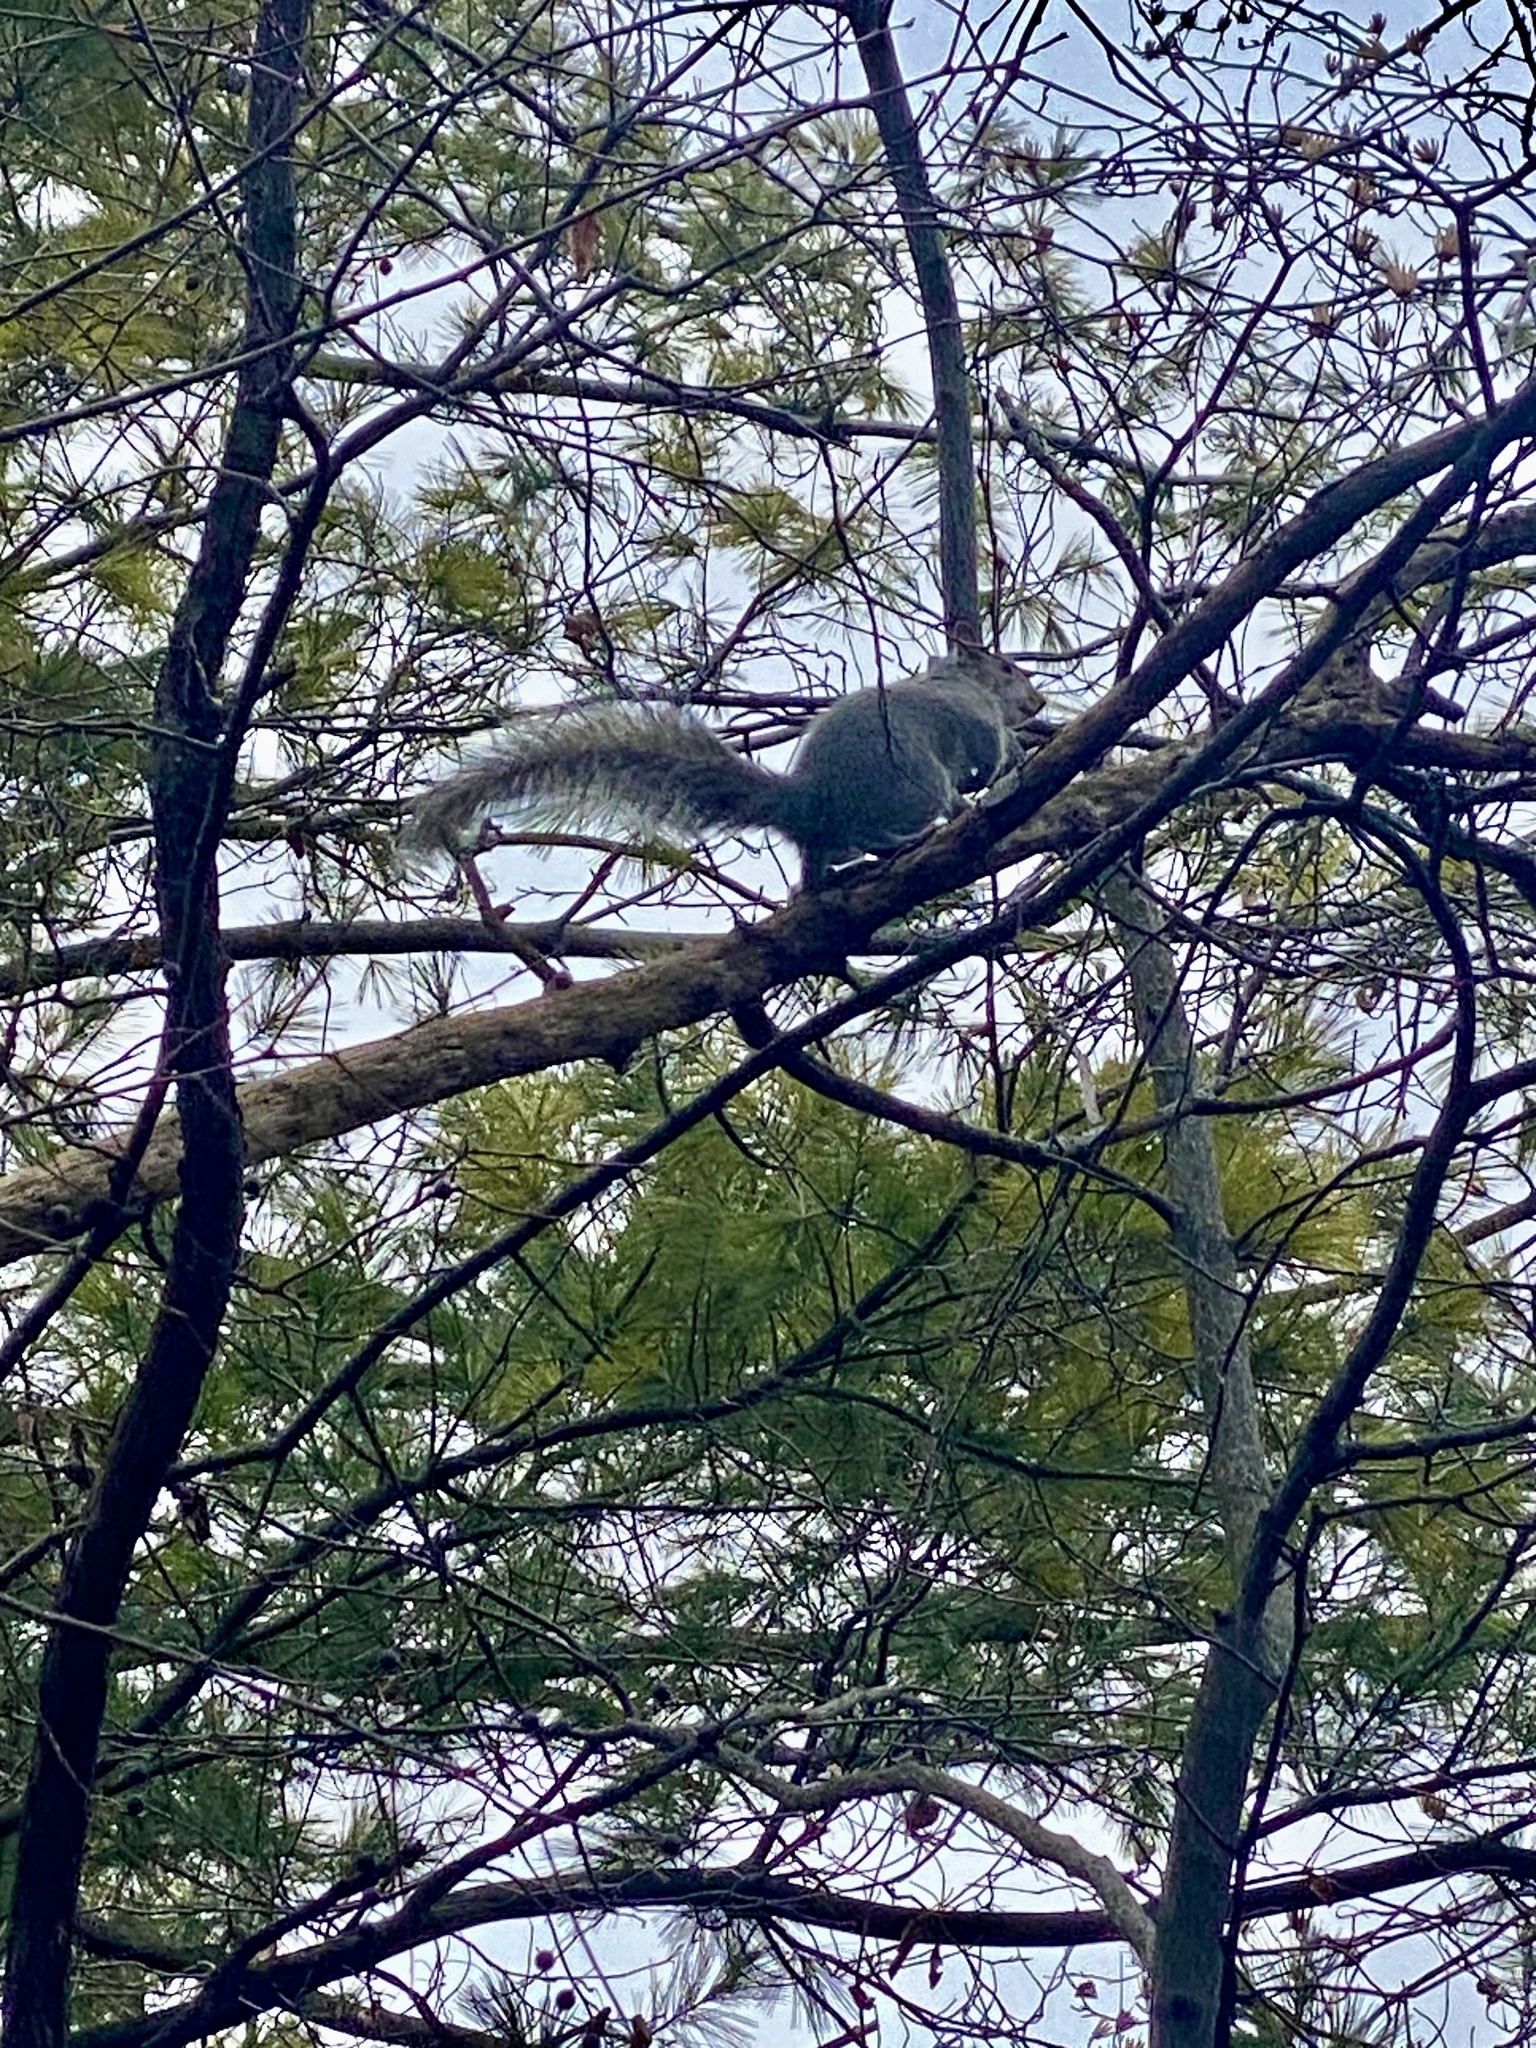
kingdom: Animalia
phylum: Chordata
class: Mammalia
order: Rodentia
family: Sciuridae
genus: Sciurus
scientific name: Sciurus carolinensis
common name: Eastern gray squirrel
